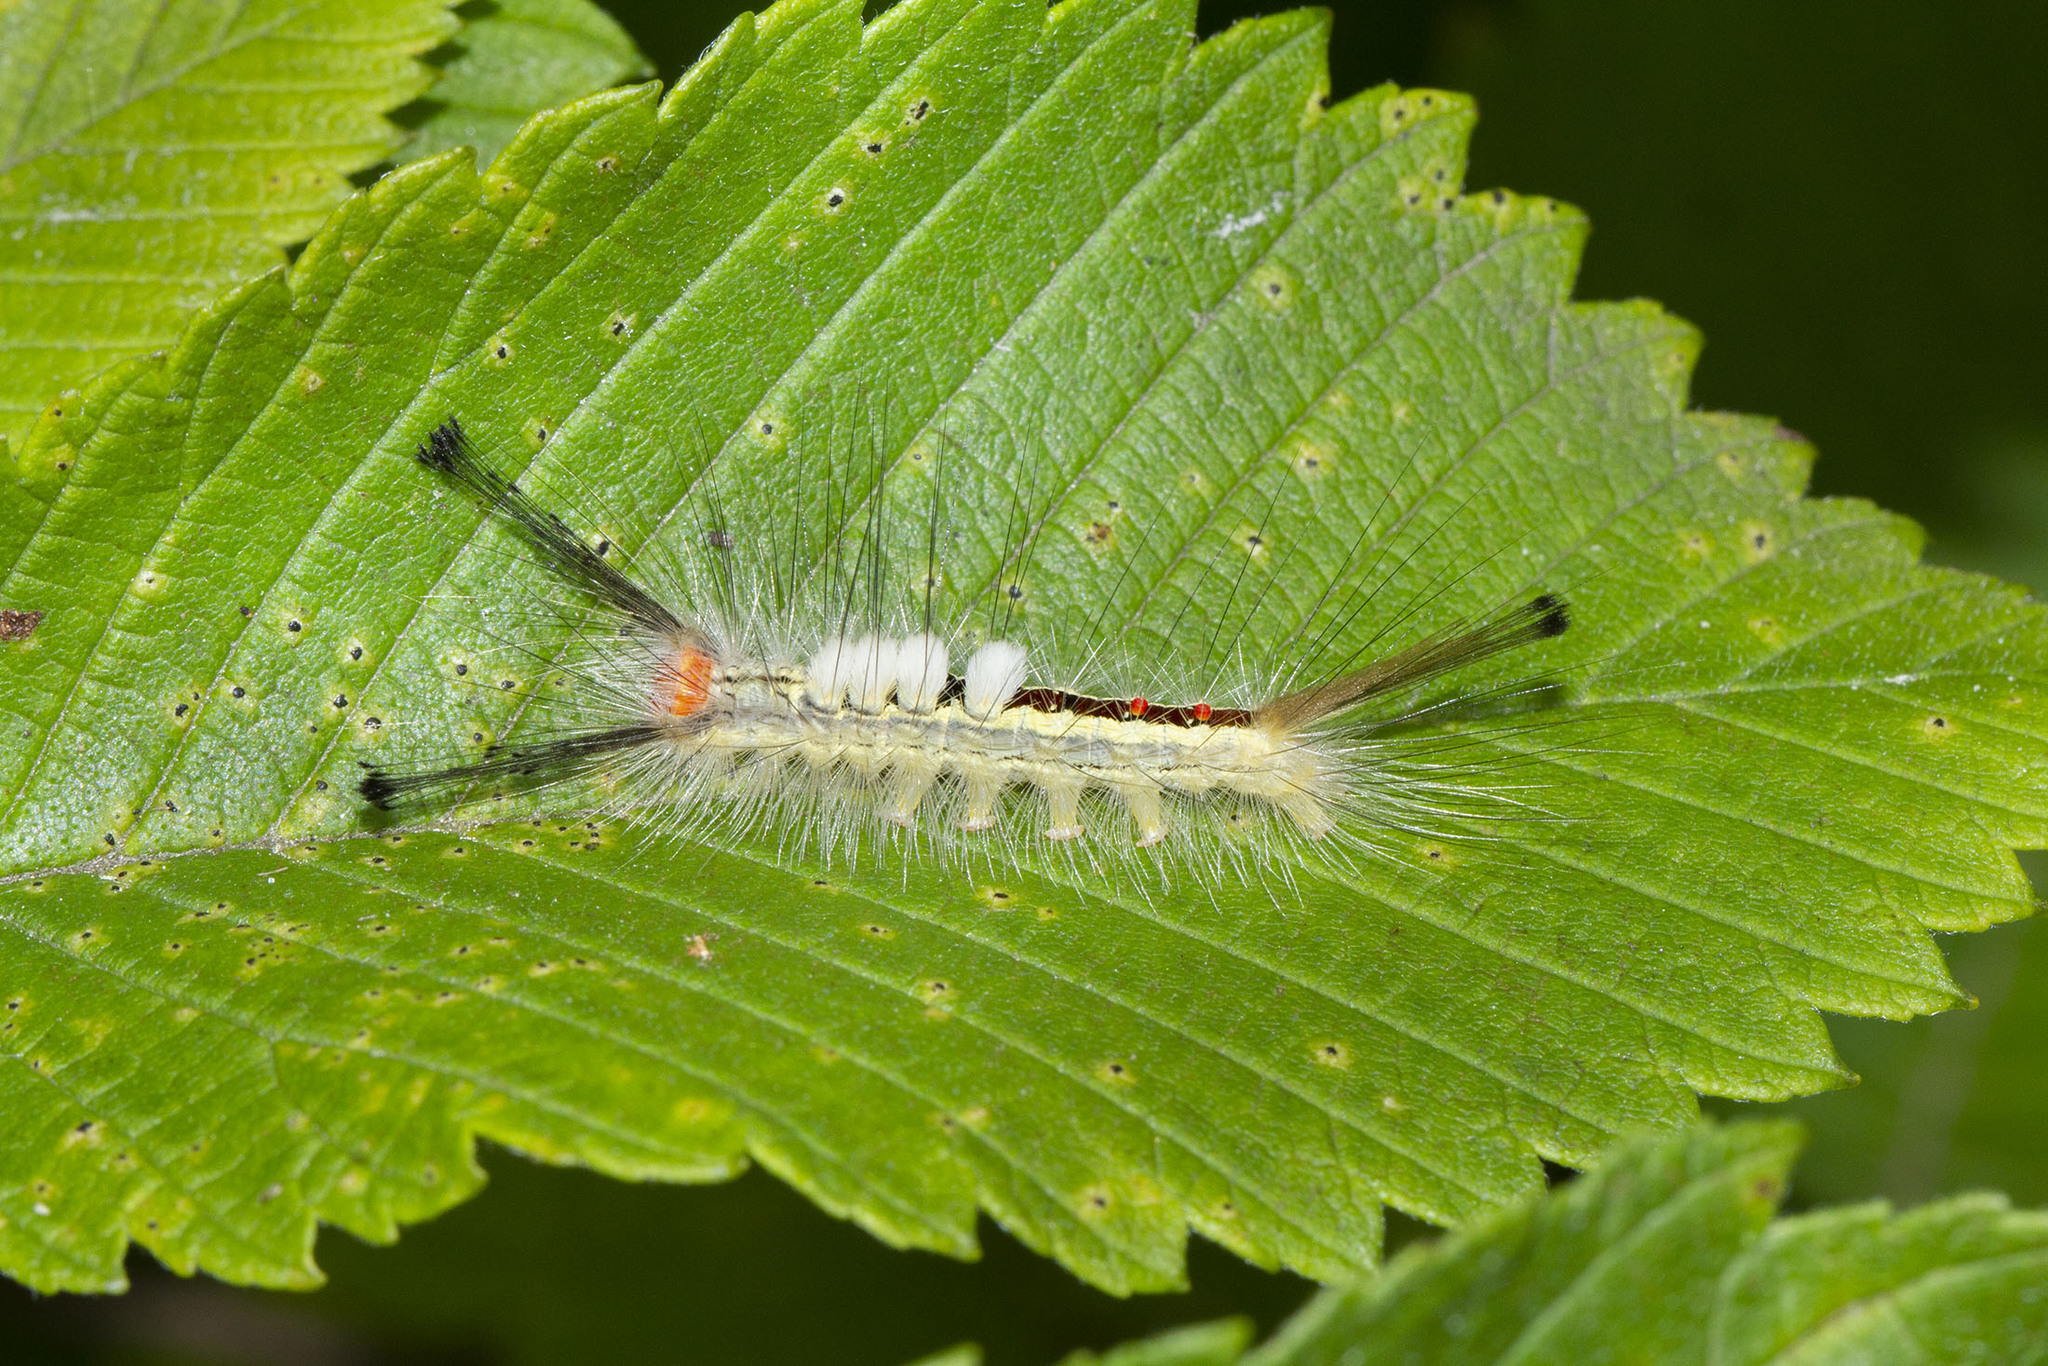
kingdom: Animalia
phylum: Arthropoda
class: Insecta
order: Lepidoptera
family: Erebidae
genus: Orgyia
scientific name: Orgyia leucostigma
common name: White-marked tussock moth
